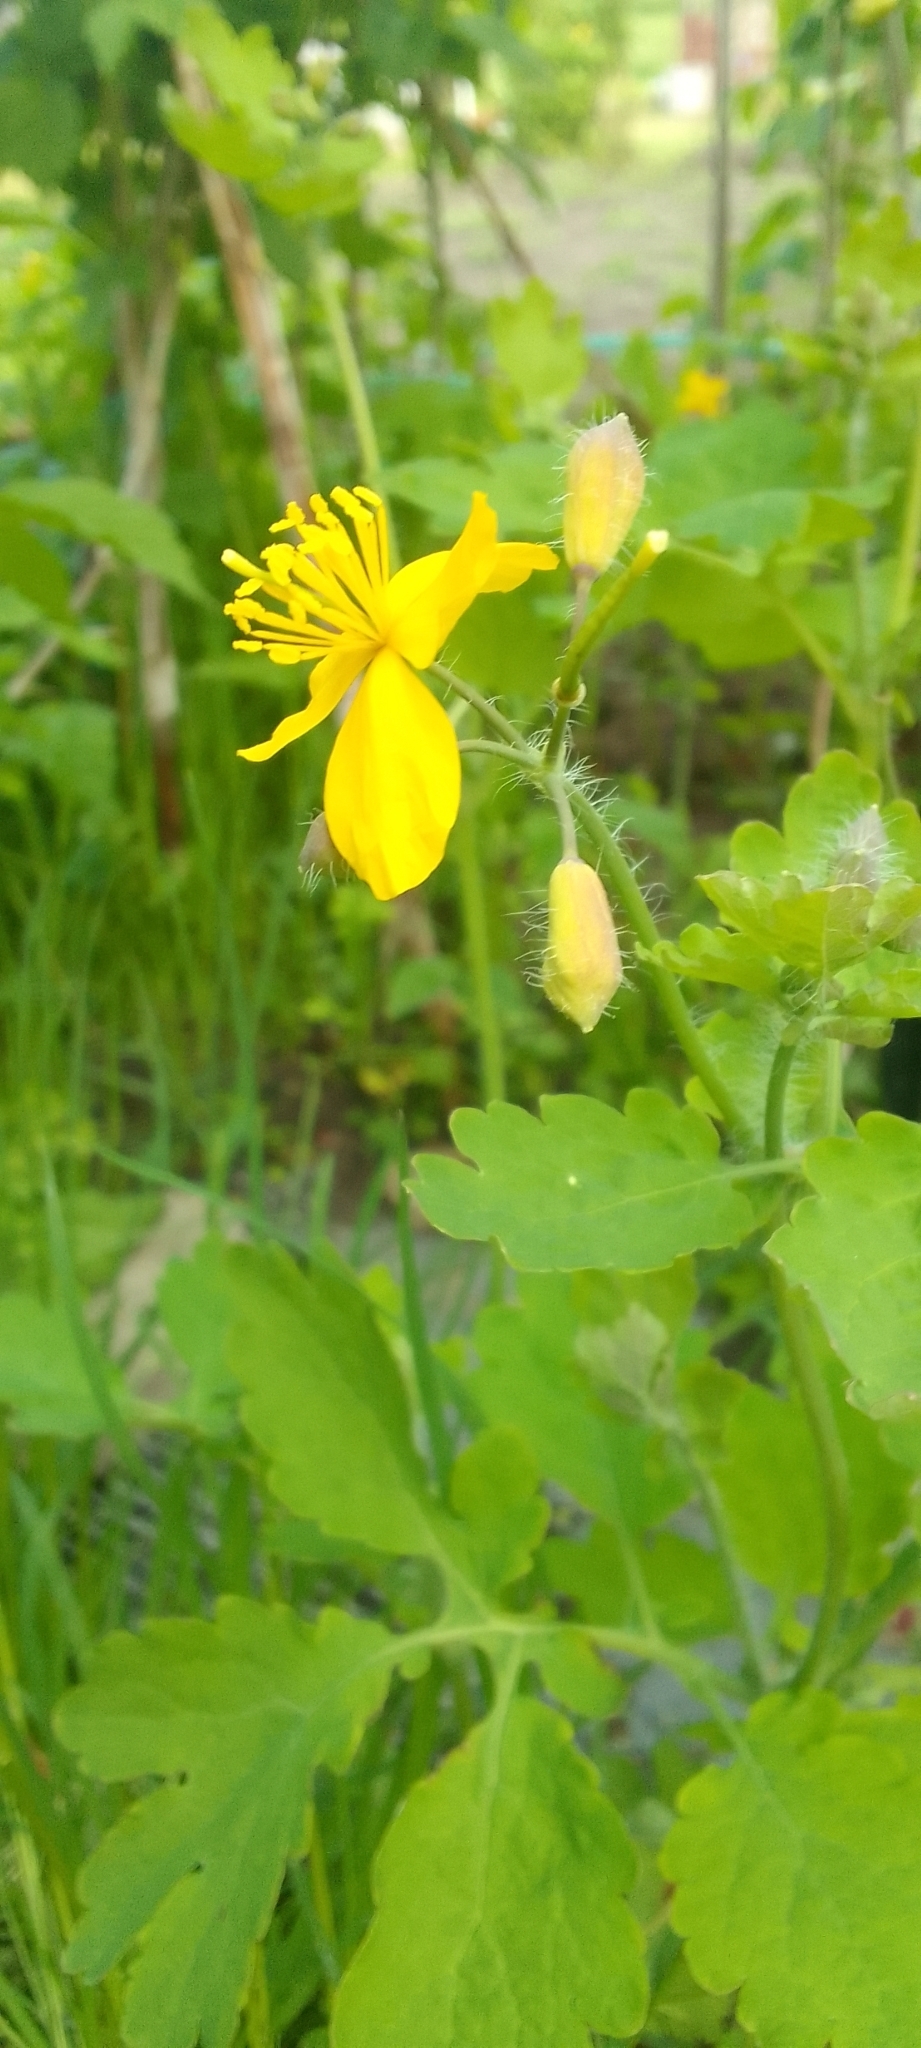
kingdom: Plantae
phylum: Tracheophyta
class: Magnoliopsida
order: Ranunculales
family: Papaveraceae
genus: Chelidonium
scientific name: Chelidonium majus
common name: Greater celandine
